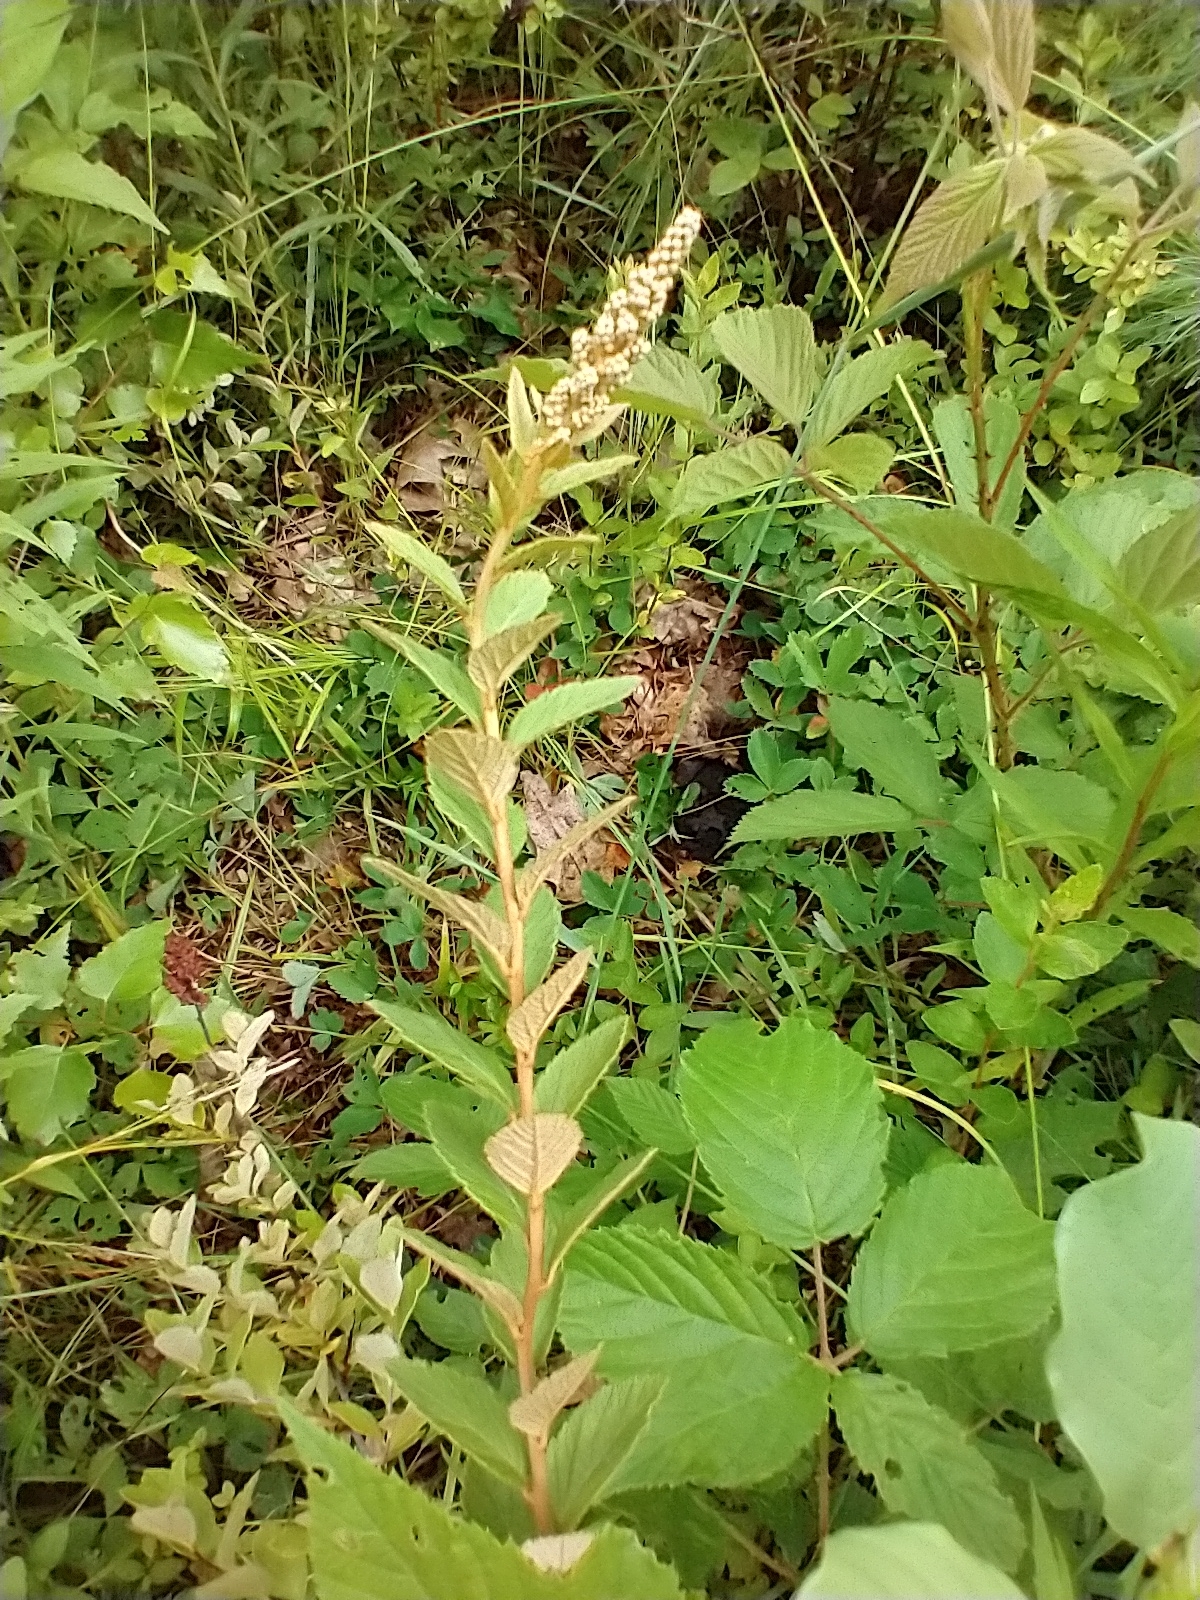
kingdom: Plantae
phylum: Tracheophyta
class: Magnoliopsida
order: Rosales
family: Rosaceae
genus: Spiraea
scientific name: Spiraea tomentosa
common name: Hardhack
